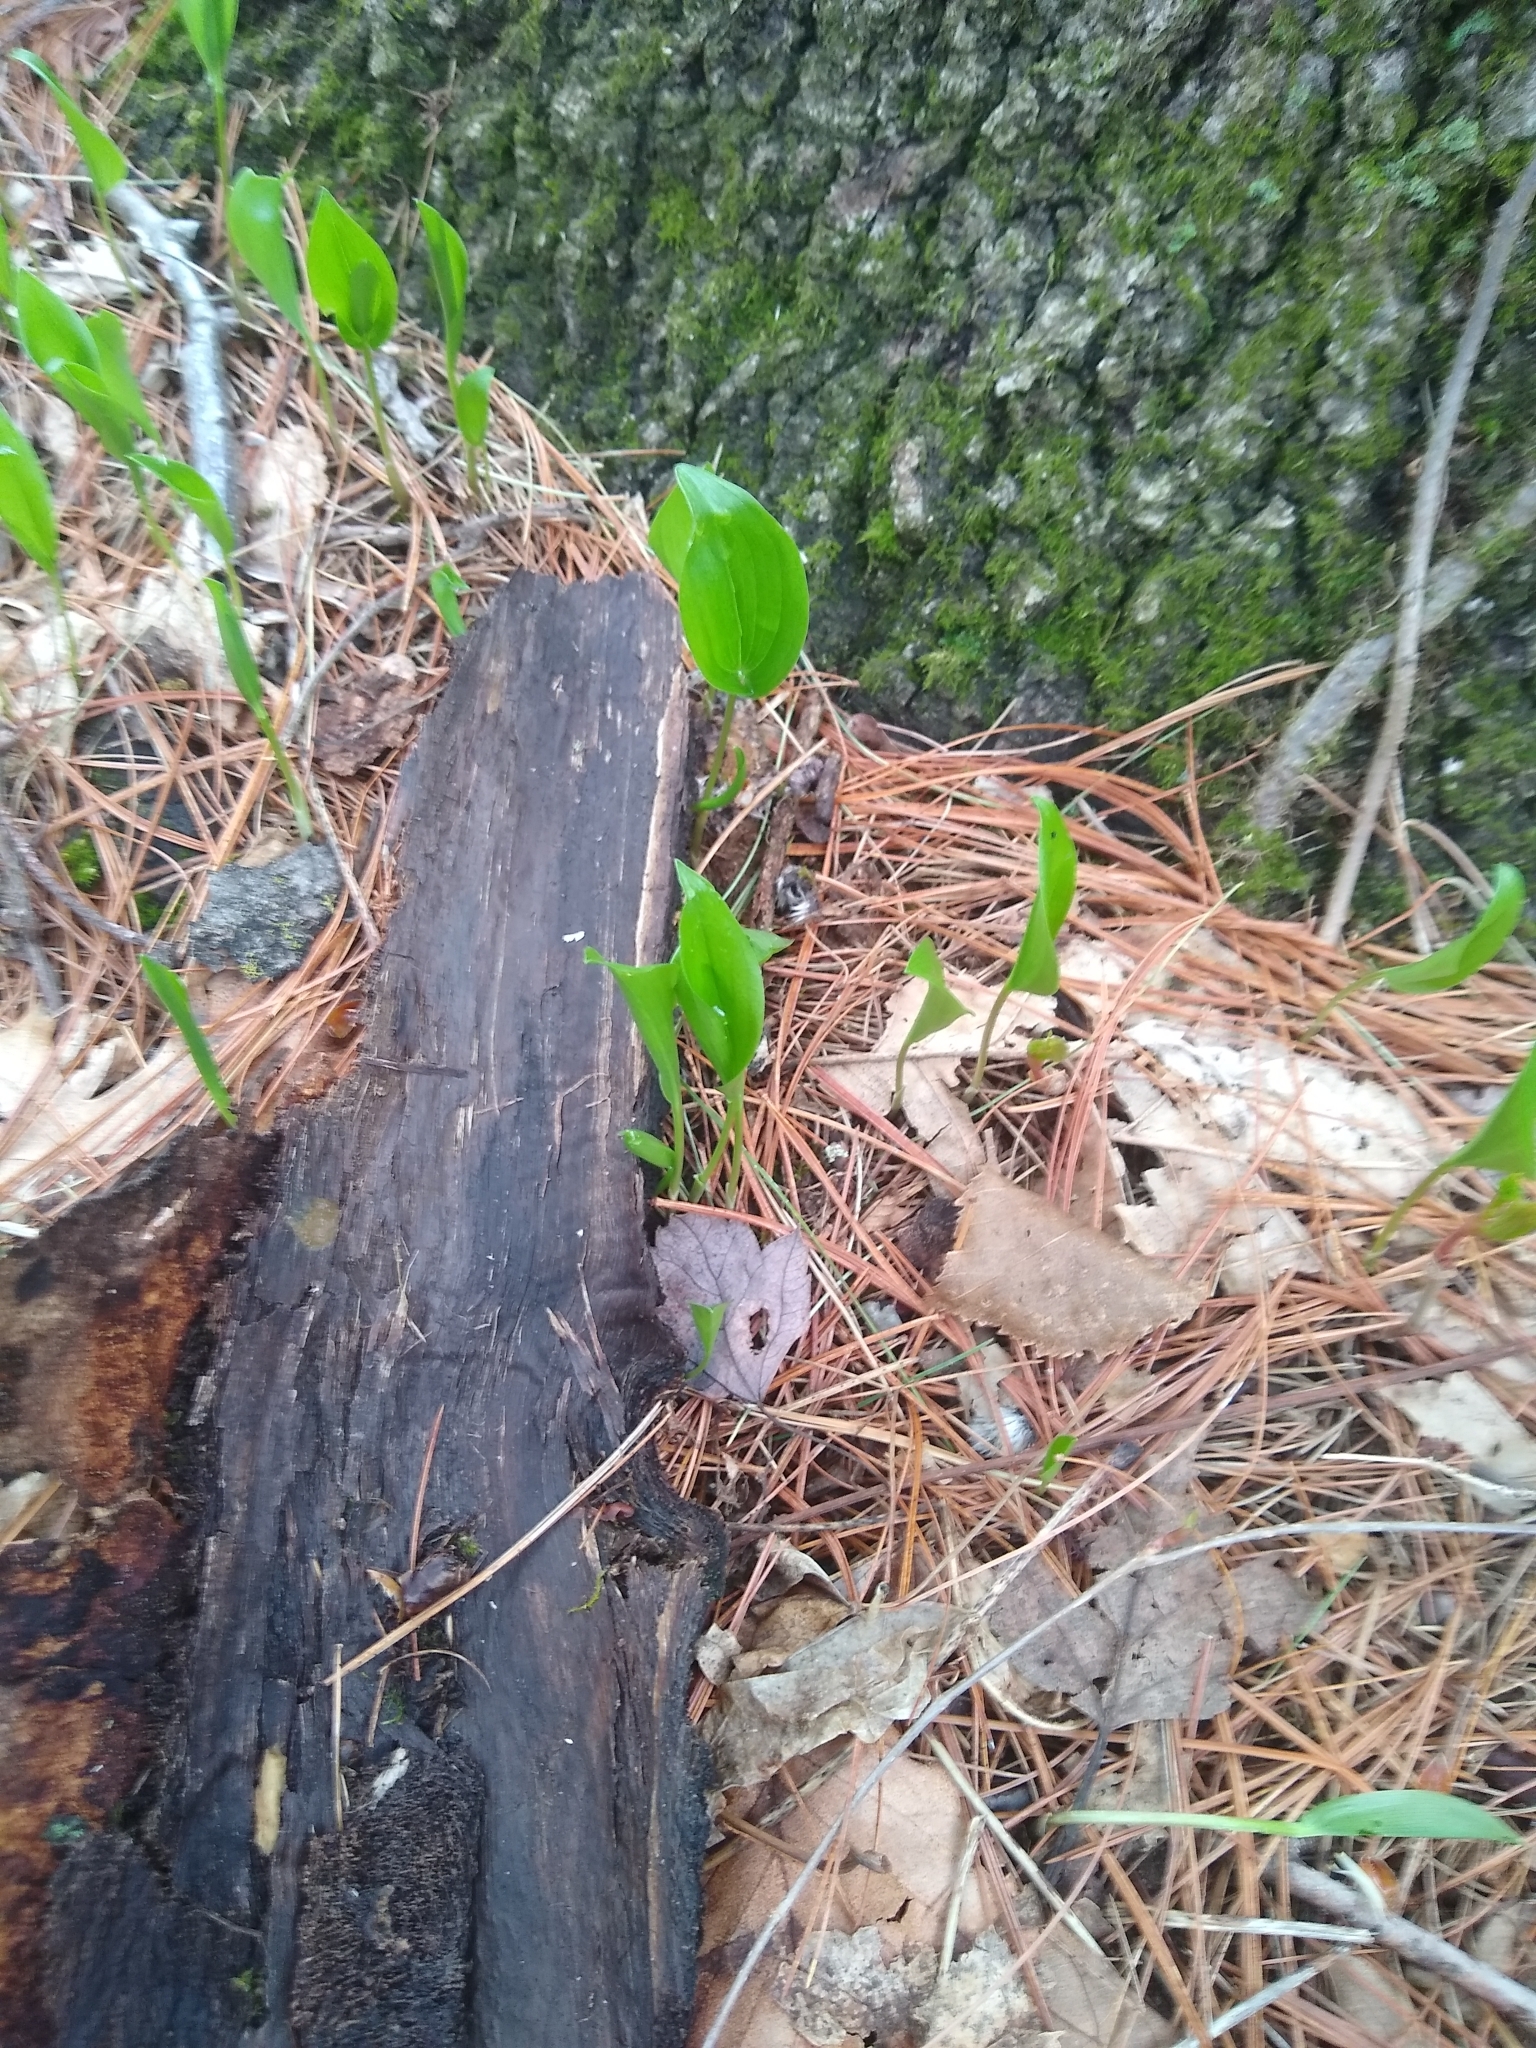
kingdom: Plantae
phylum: Tracheophyta
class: Liliopsida
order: Asparagales
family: Asparagaceae
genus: Maianthemum
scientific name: Maianthemum canadense
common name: False lily-of-the-valley
